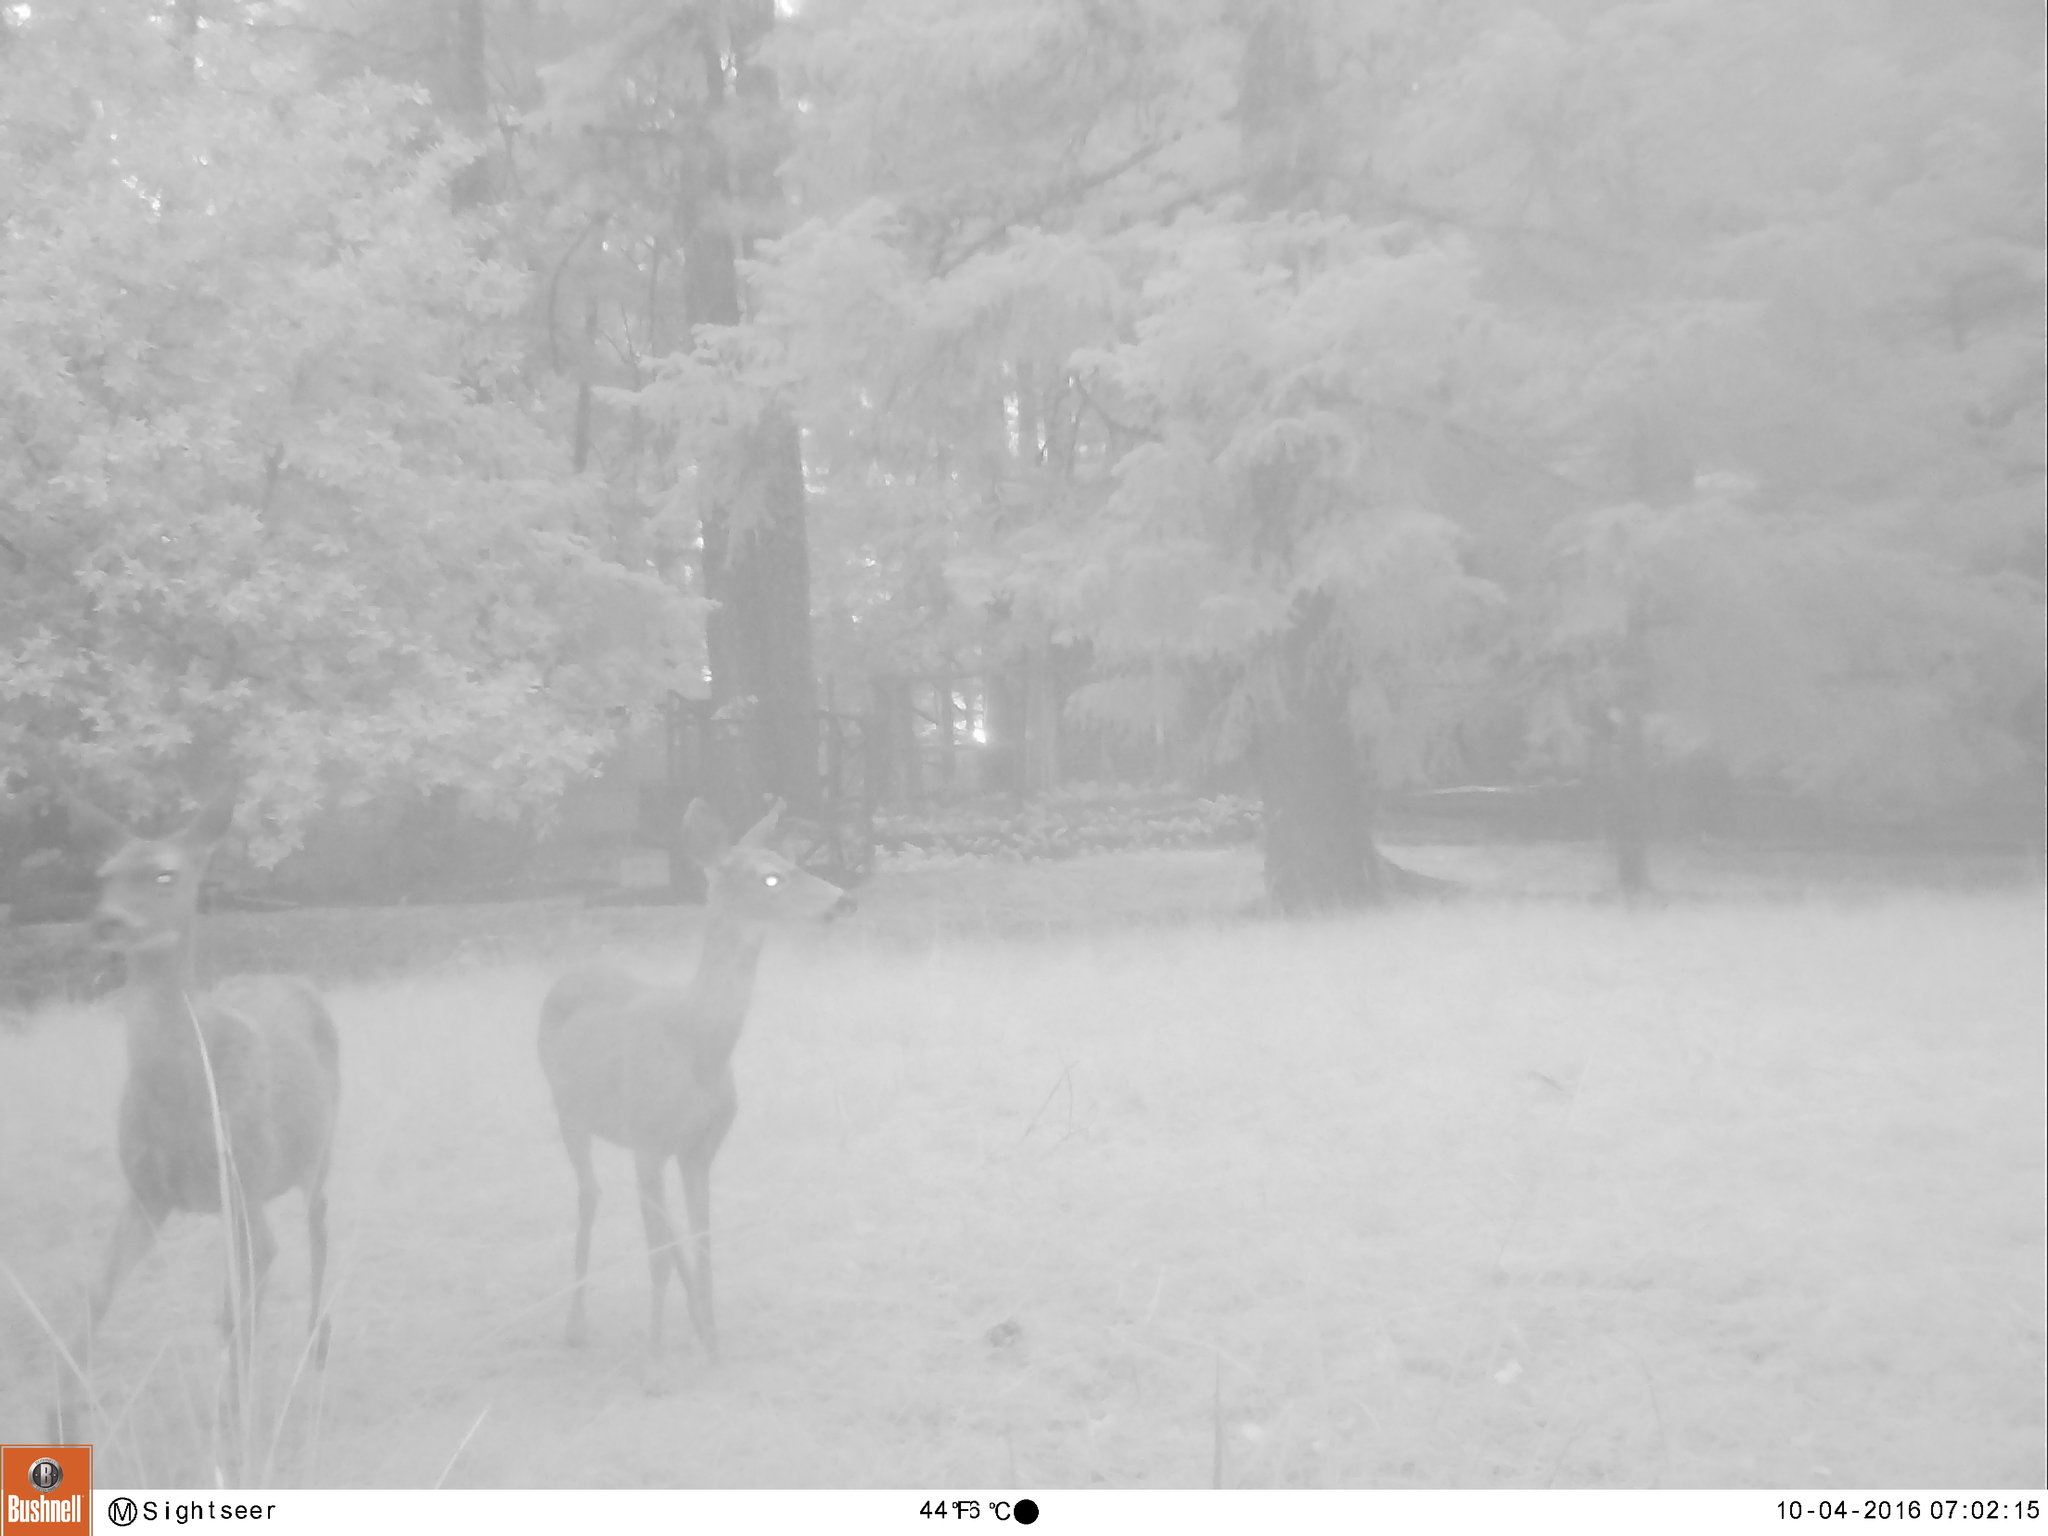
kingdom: Animalia
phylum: Chordata
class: Mammalia
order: Artiodactyla
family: Cervidae
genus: Odocoileus
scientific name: Odocoileus hemionus
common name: Mule deer
